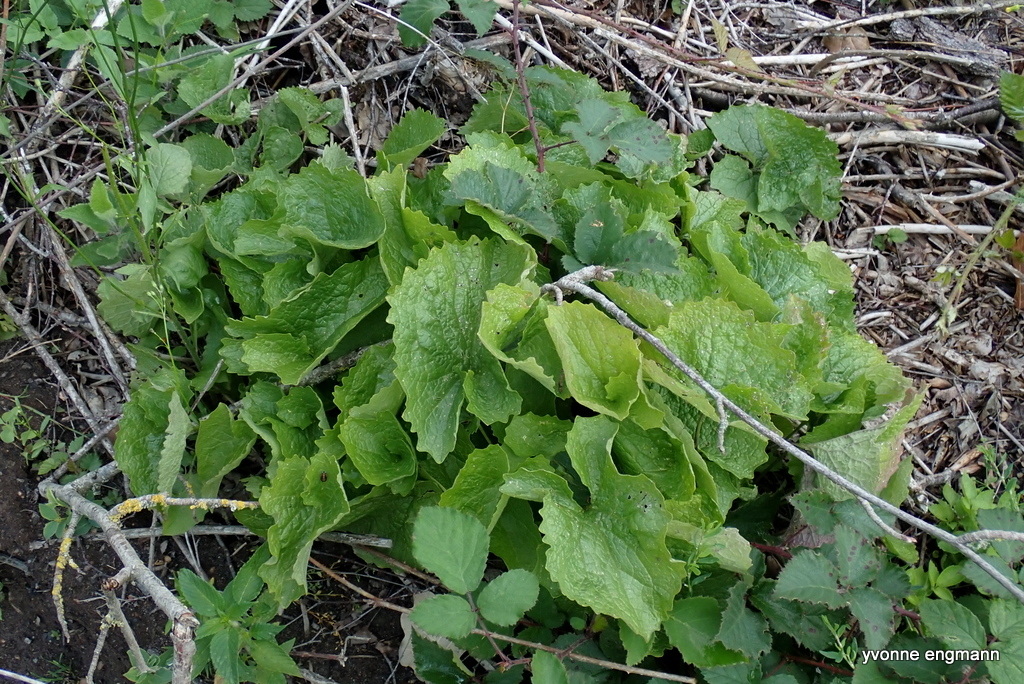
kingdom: Plantae
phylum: Tracheophyta
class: Magnoliopsida
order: Brassicales
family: Brassicaceae
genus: Alliaria
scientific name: Alliaria petiolata
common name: Garlic mustard
